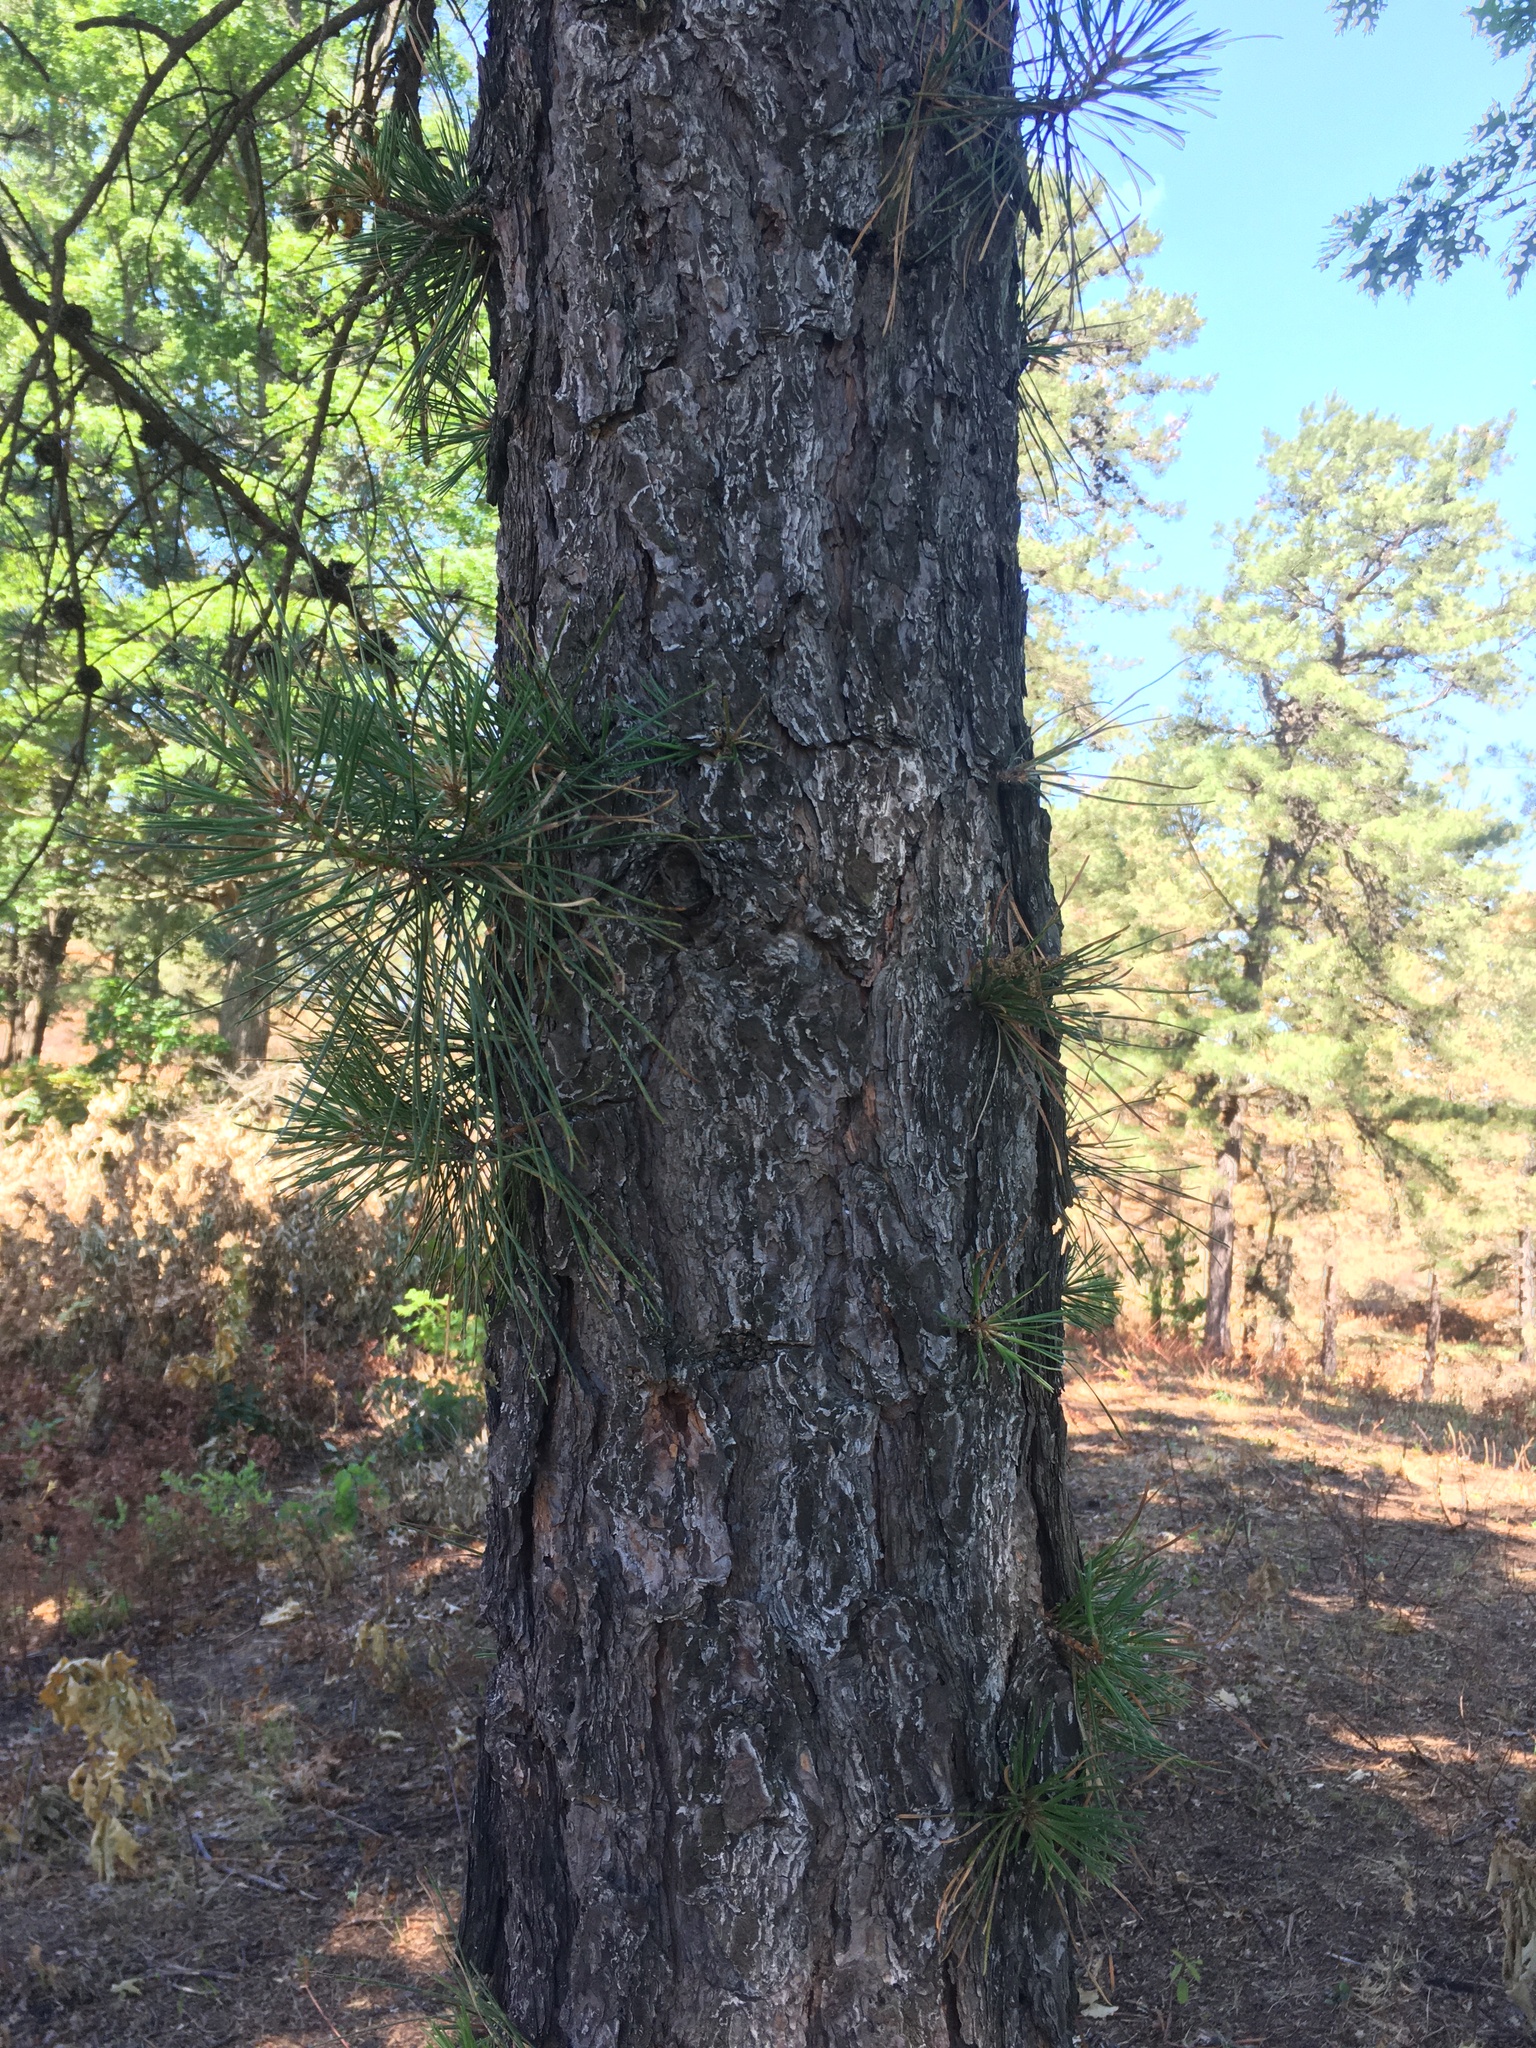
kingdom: Plantae
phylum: Tracheophyta
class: Pinopsida
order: Pinales
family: Pinaceae
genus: Pinus
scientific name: Pinus rigida
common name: Pitch pine
